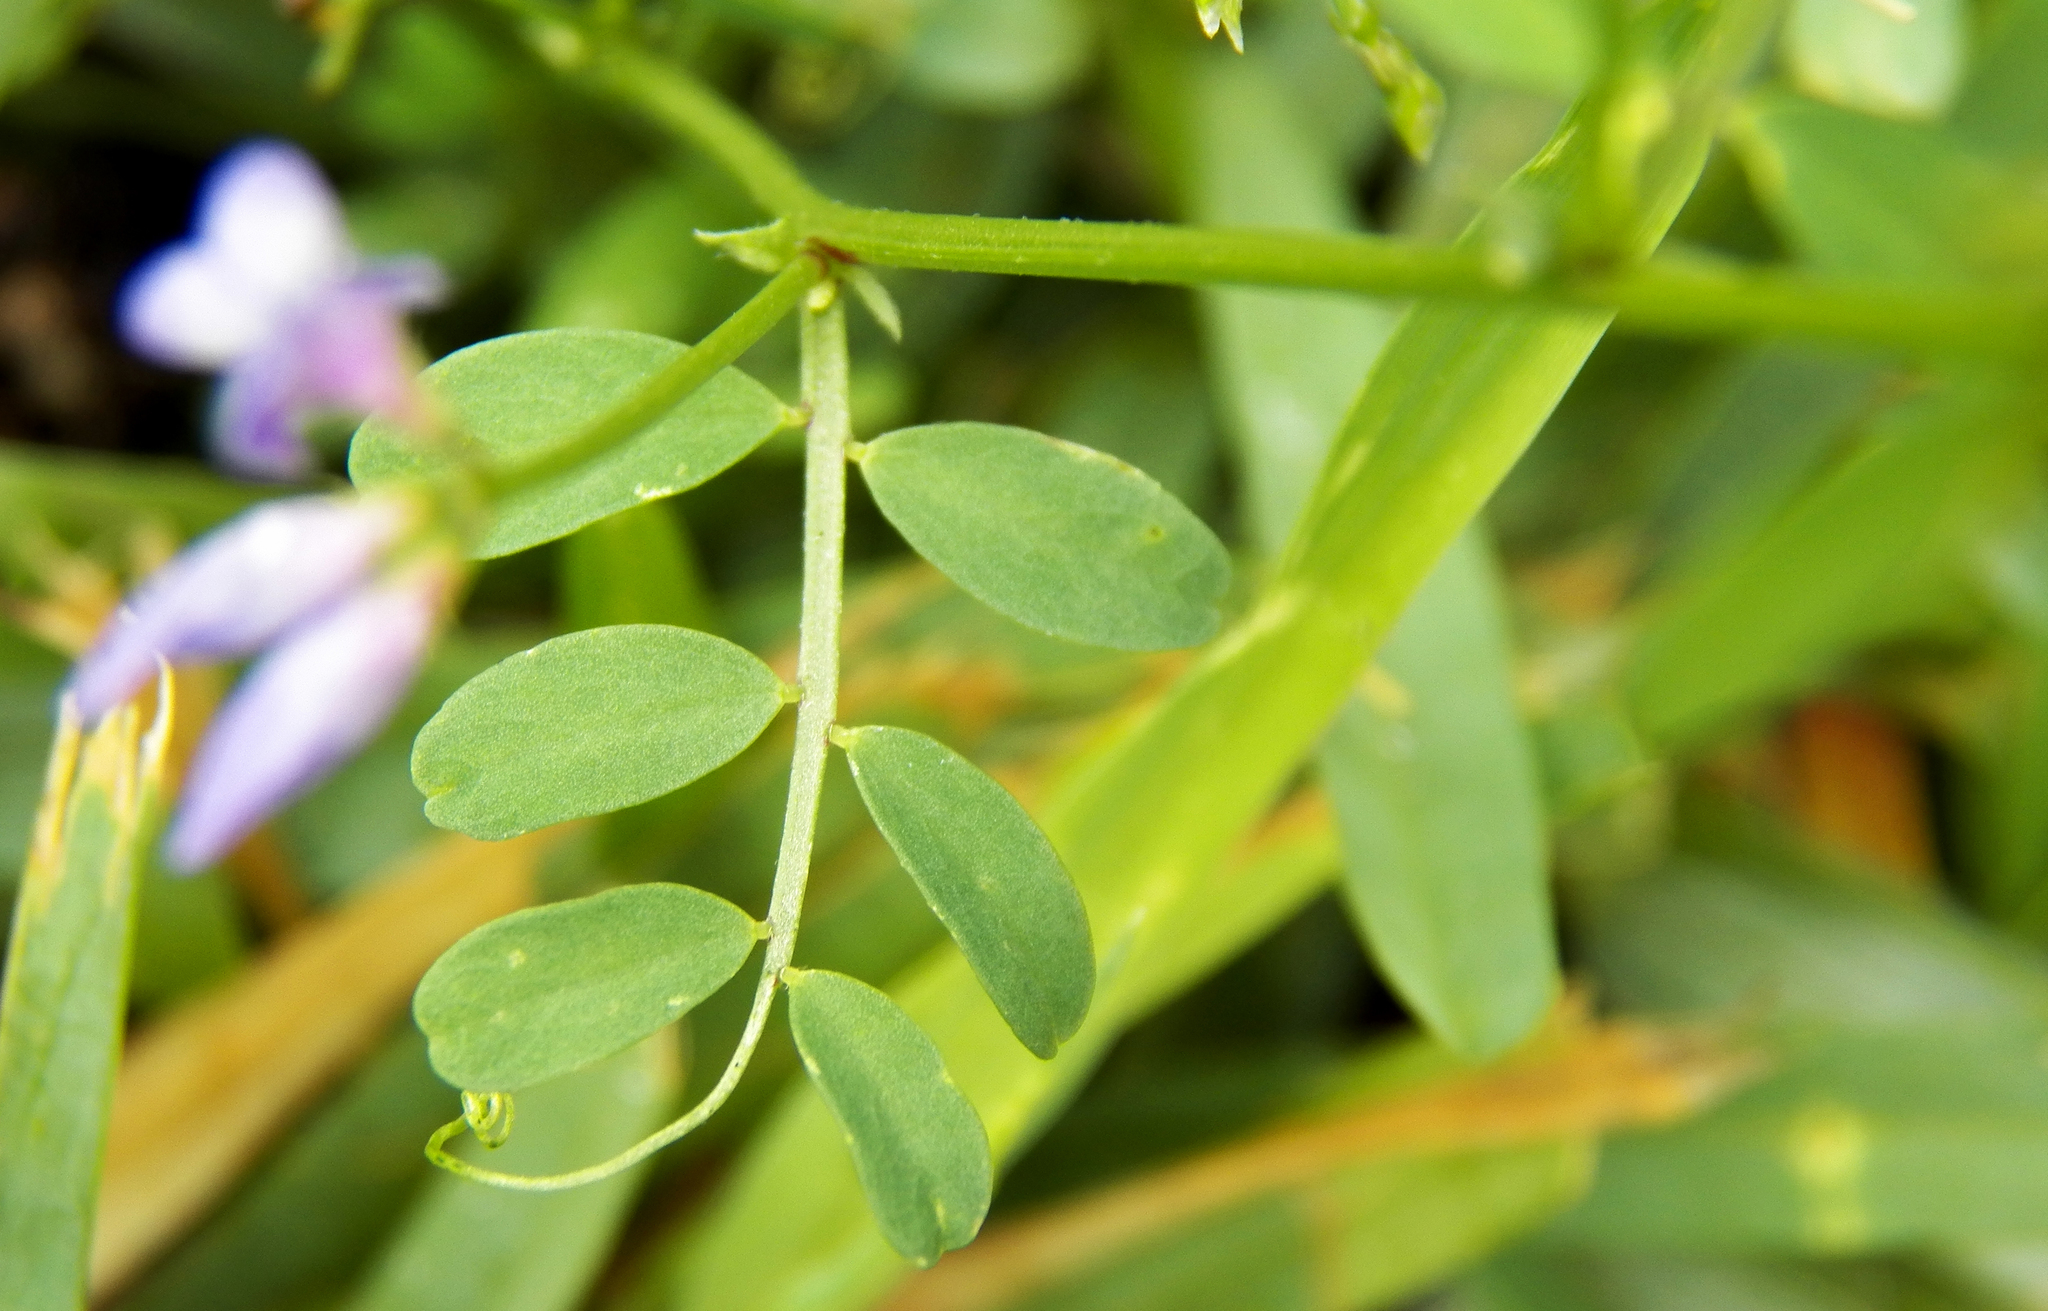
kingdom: Plantae
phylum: Tracheophyta
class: Magnoliopsida
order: Fabales
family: Fabaceae
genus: Vicia
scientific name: Vicia ludoviciana
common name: Louisiana vetch
